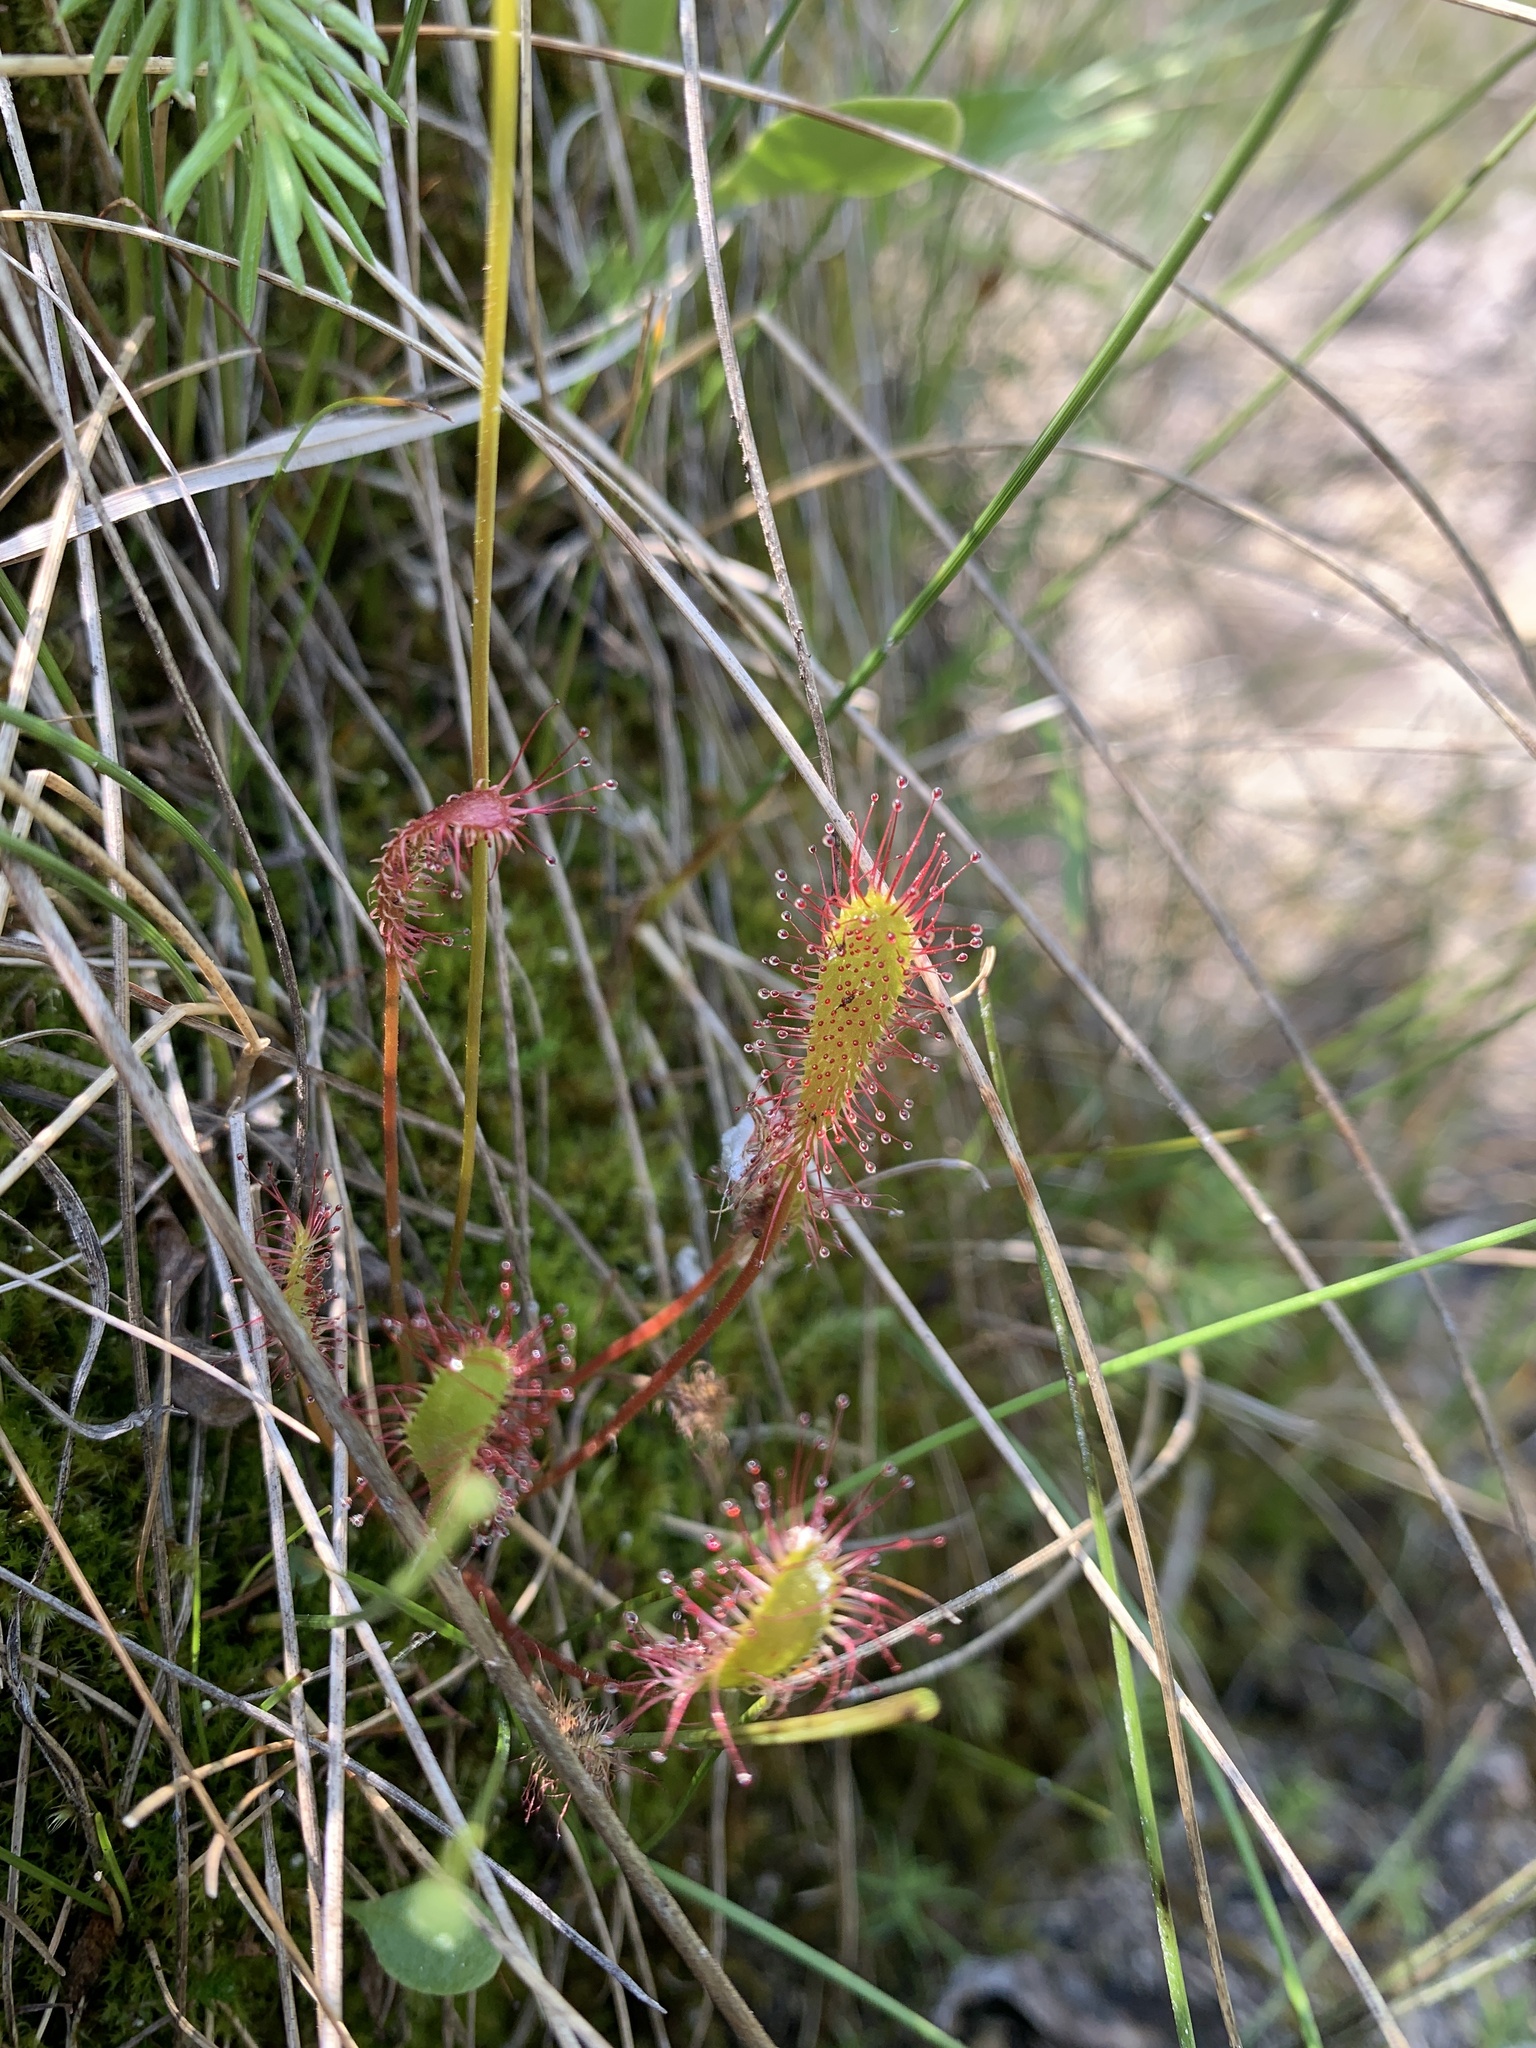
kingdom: Plantae
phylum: Tracheophyta
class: Magnoliopsida
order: Caryophyllales
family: Droseraceae
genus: Drosera
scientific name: Drosera anglica
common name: Great sundew
